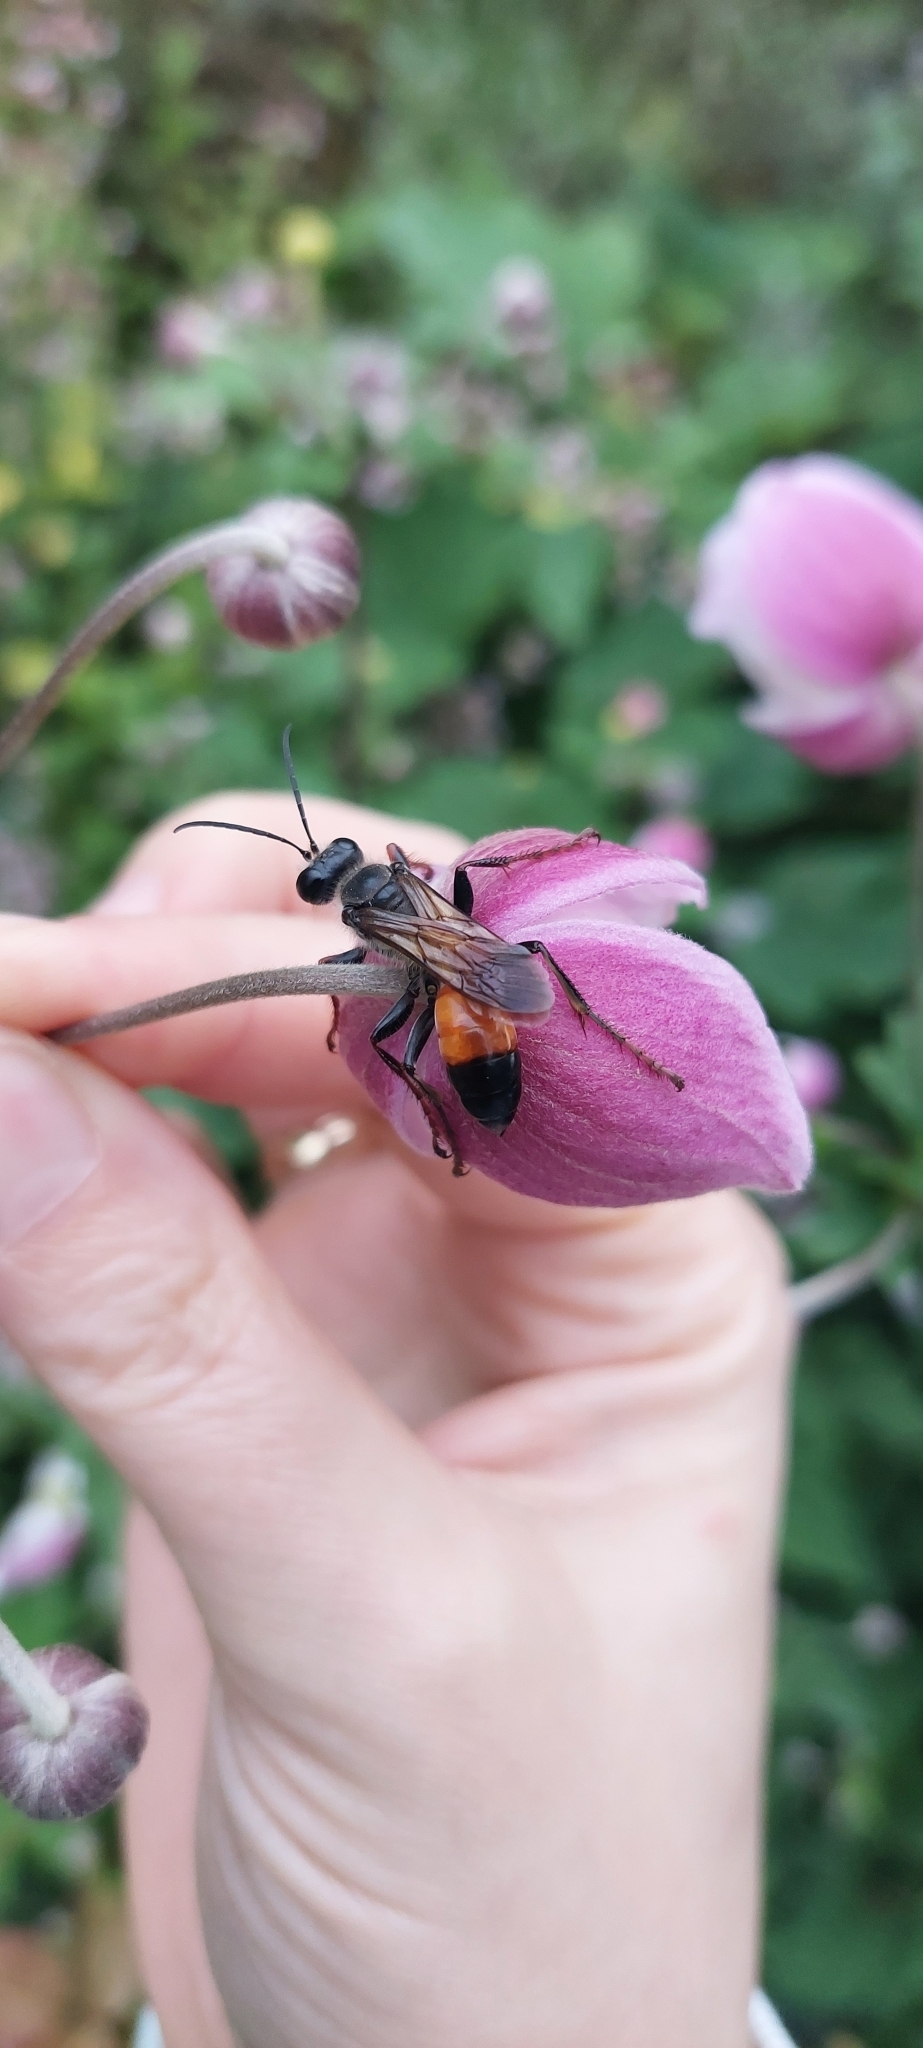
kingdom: Animalia
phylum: Arthropoda
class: Insecta
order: Hymenoptera
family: Sphecidae
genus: Sphex
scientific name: Sphex funerarius
